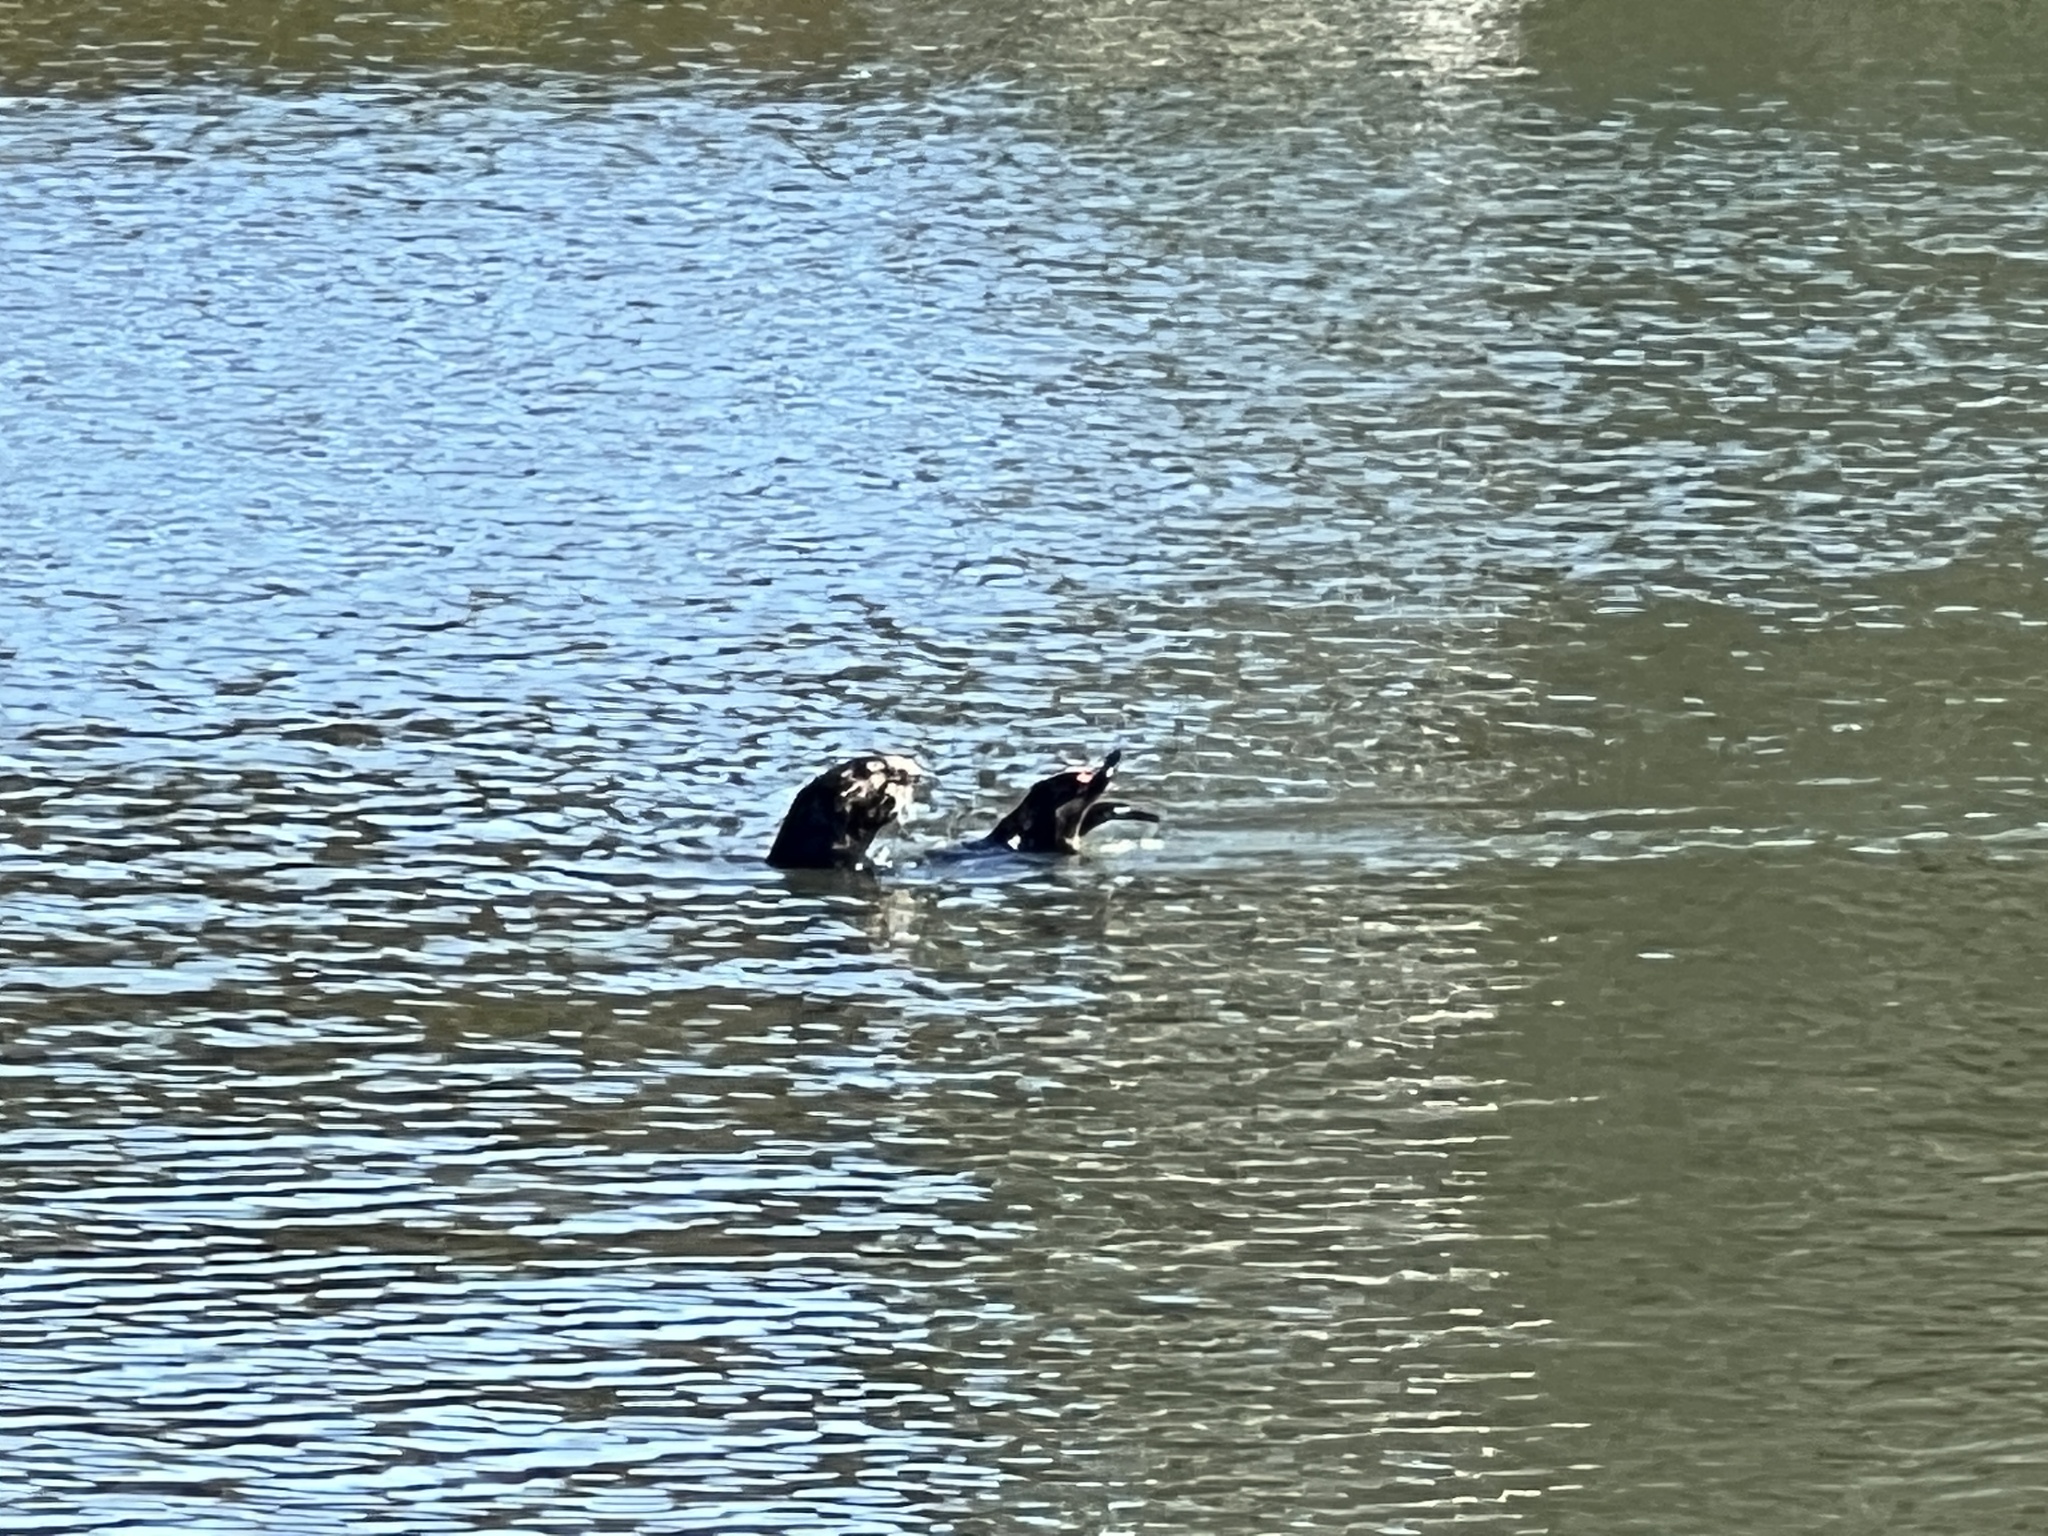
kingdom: Animalia
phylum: Chordata
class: Mammalia
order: Carnivora
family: Mustelidae
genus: Enhydra
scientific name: Enhydra lutris
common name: Sea otter
